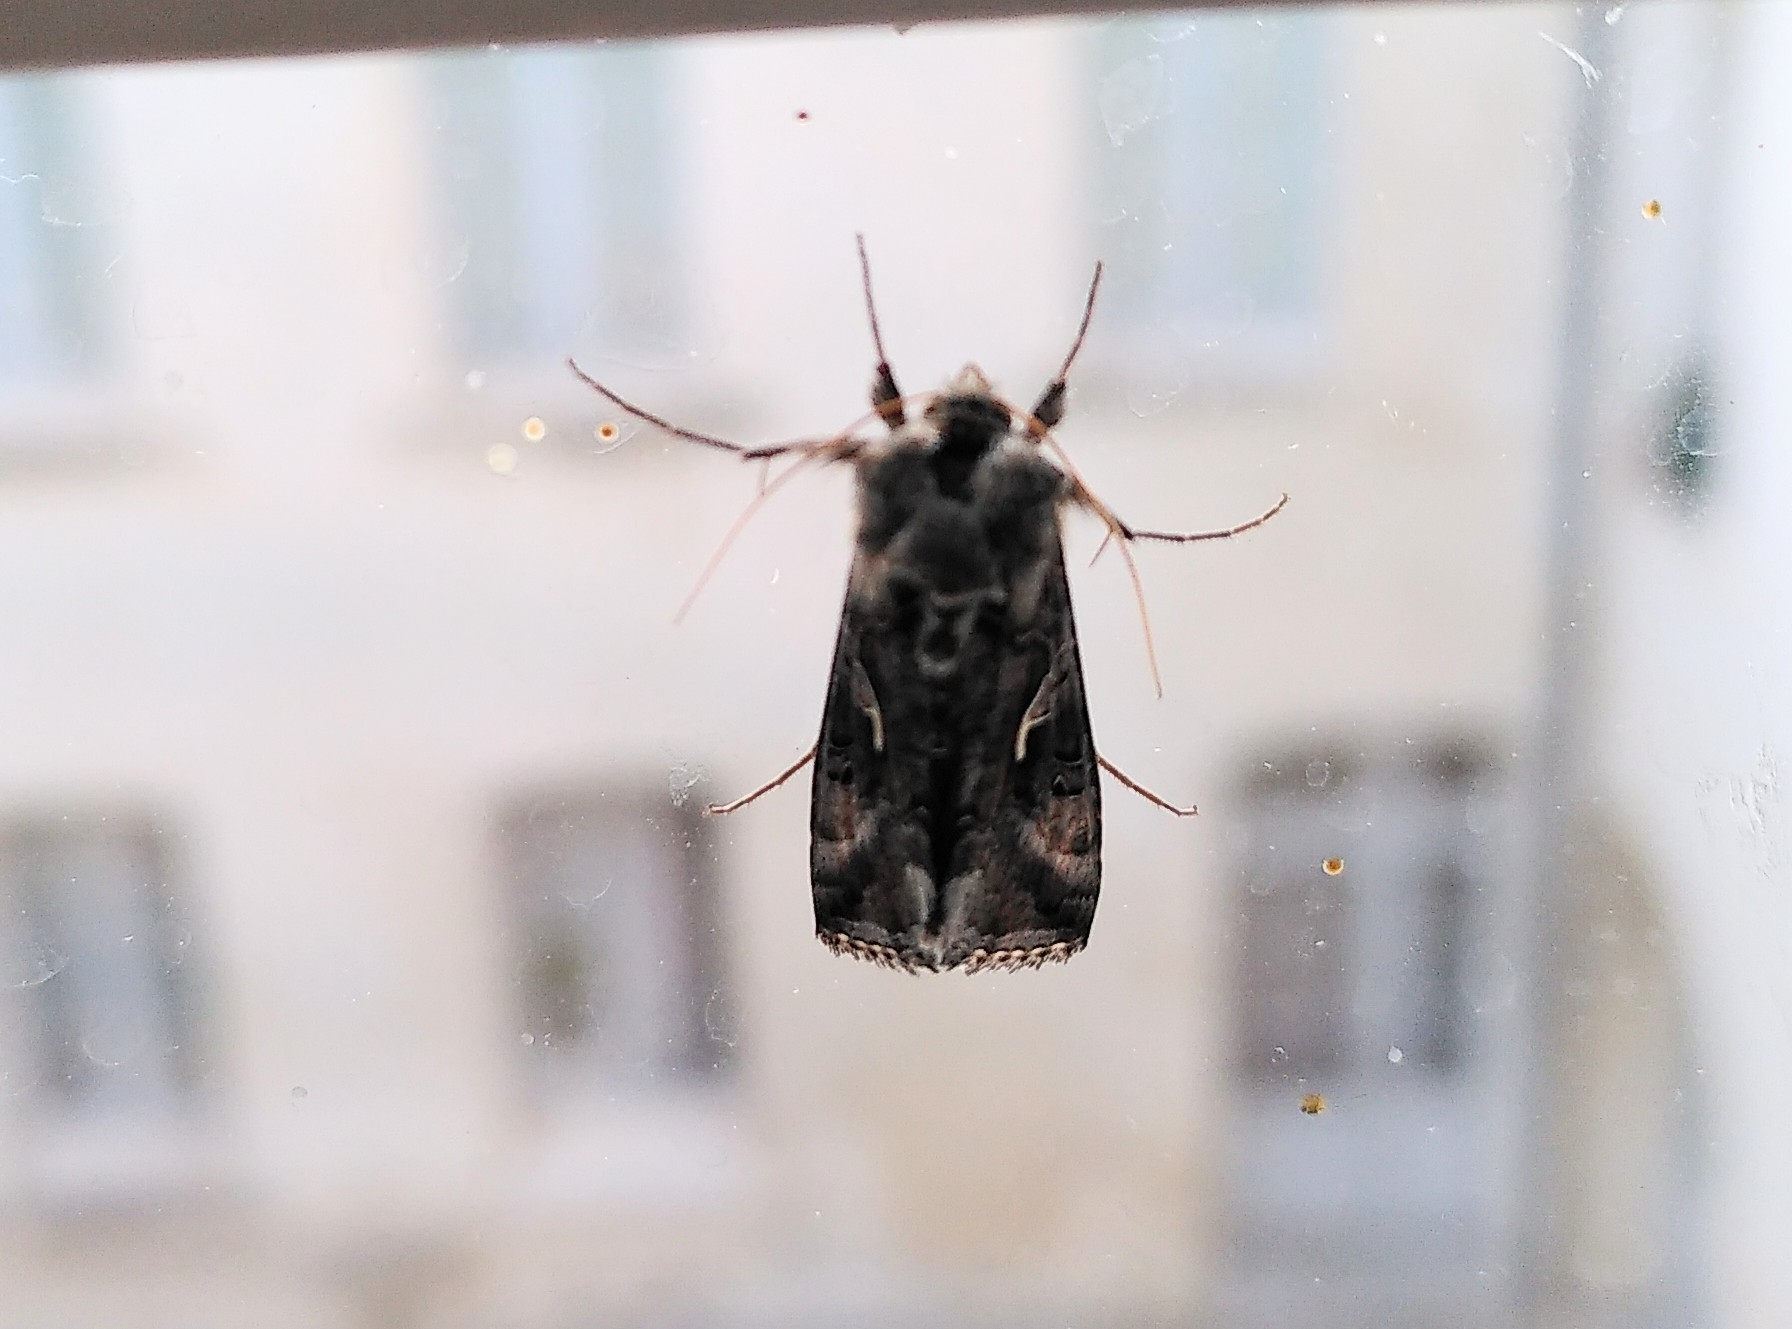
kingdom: Animalia
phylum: Arthropoda
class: Insecta
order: Lepidoptera
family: Noctuidae
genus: Autographa
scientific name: Autographa gamma
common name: Silver y
